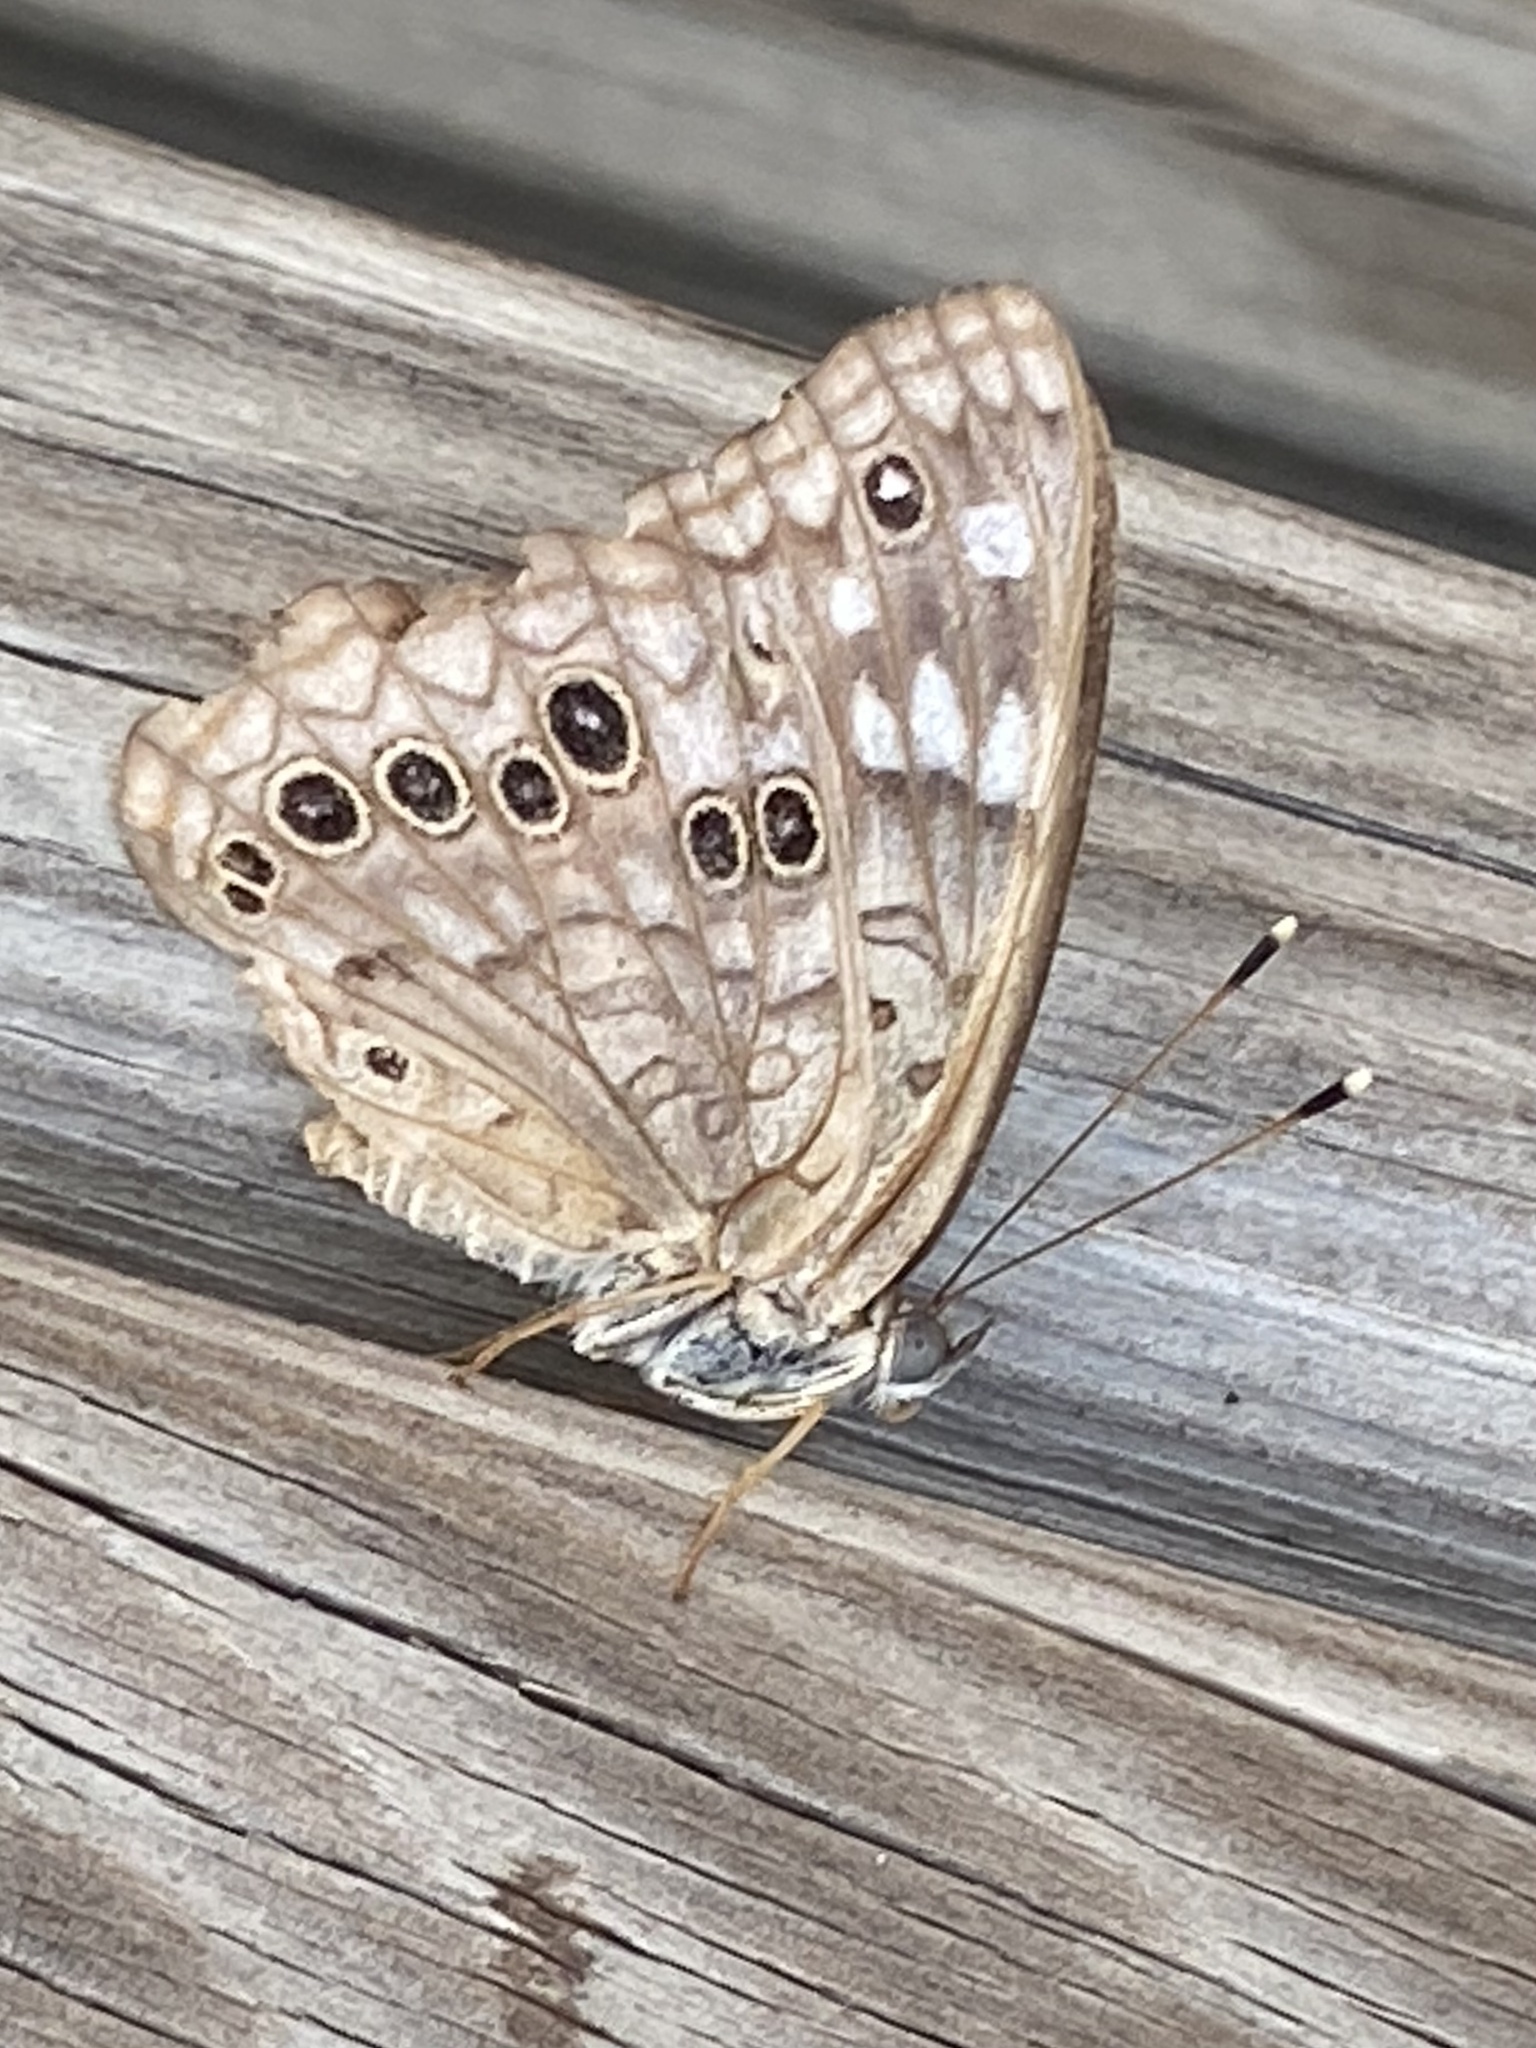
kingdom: Animalia
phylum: Arthropoda
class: Insecta
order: Lepidoptera
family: Nymphalidae
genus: Asterocampa
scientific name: Asterocampa celtis
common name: Hackberry emperor
